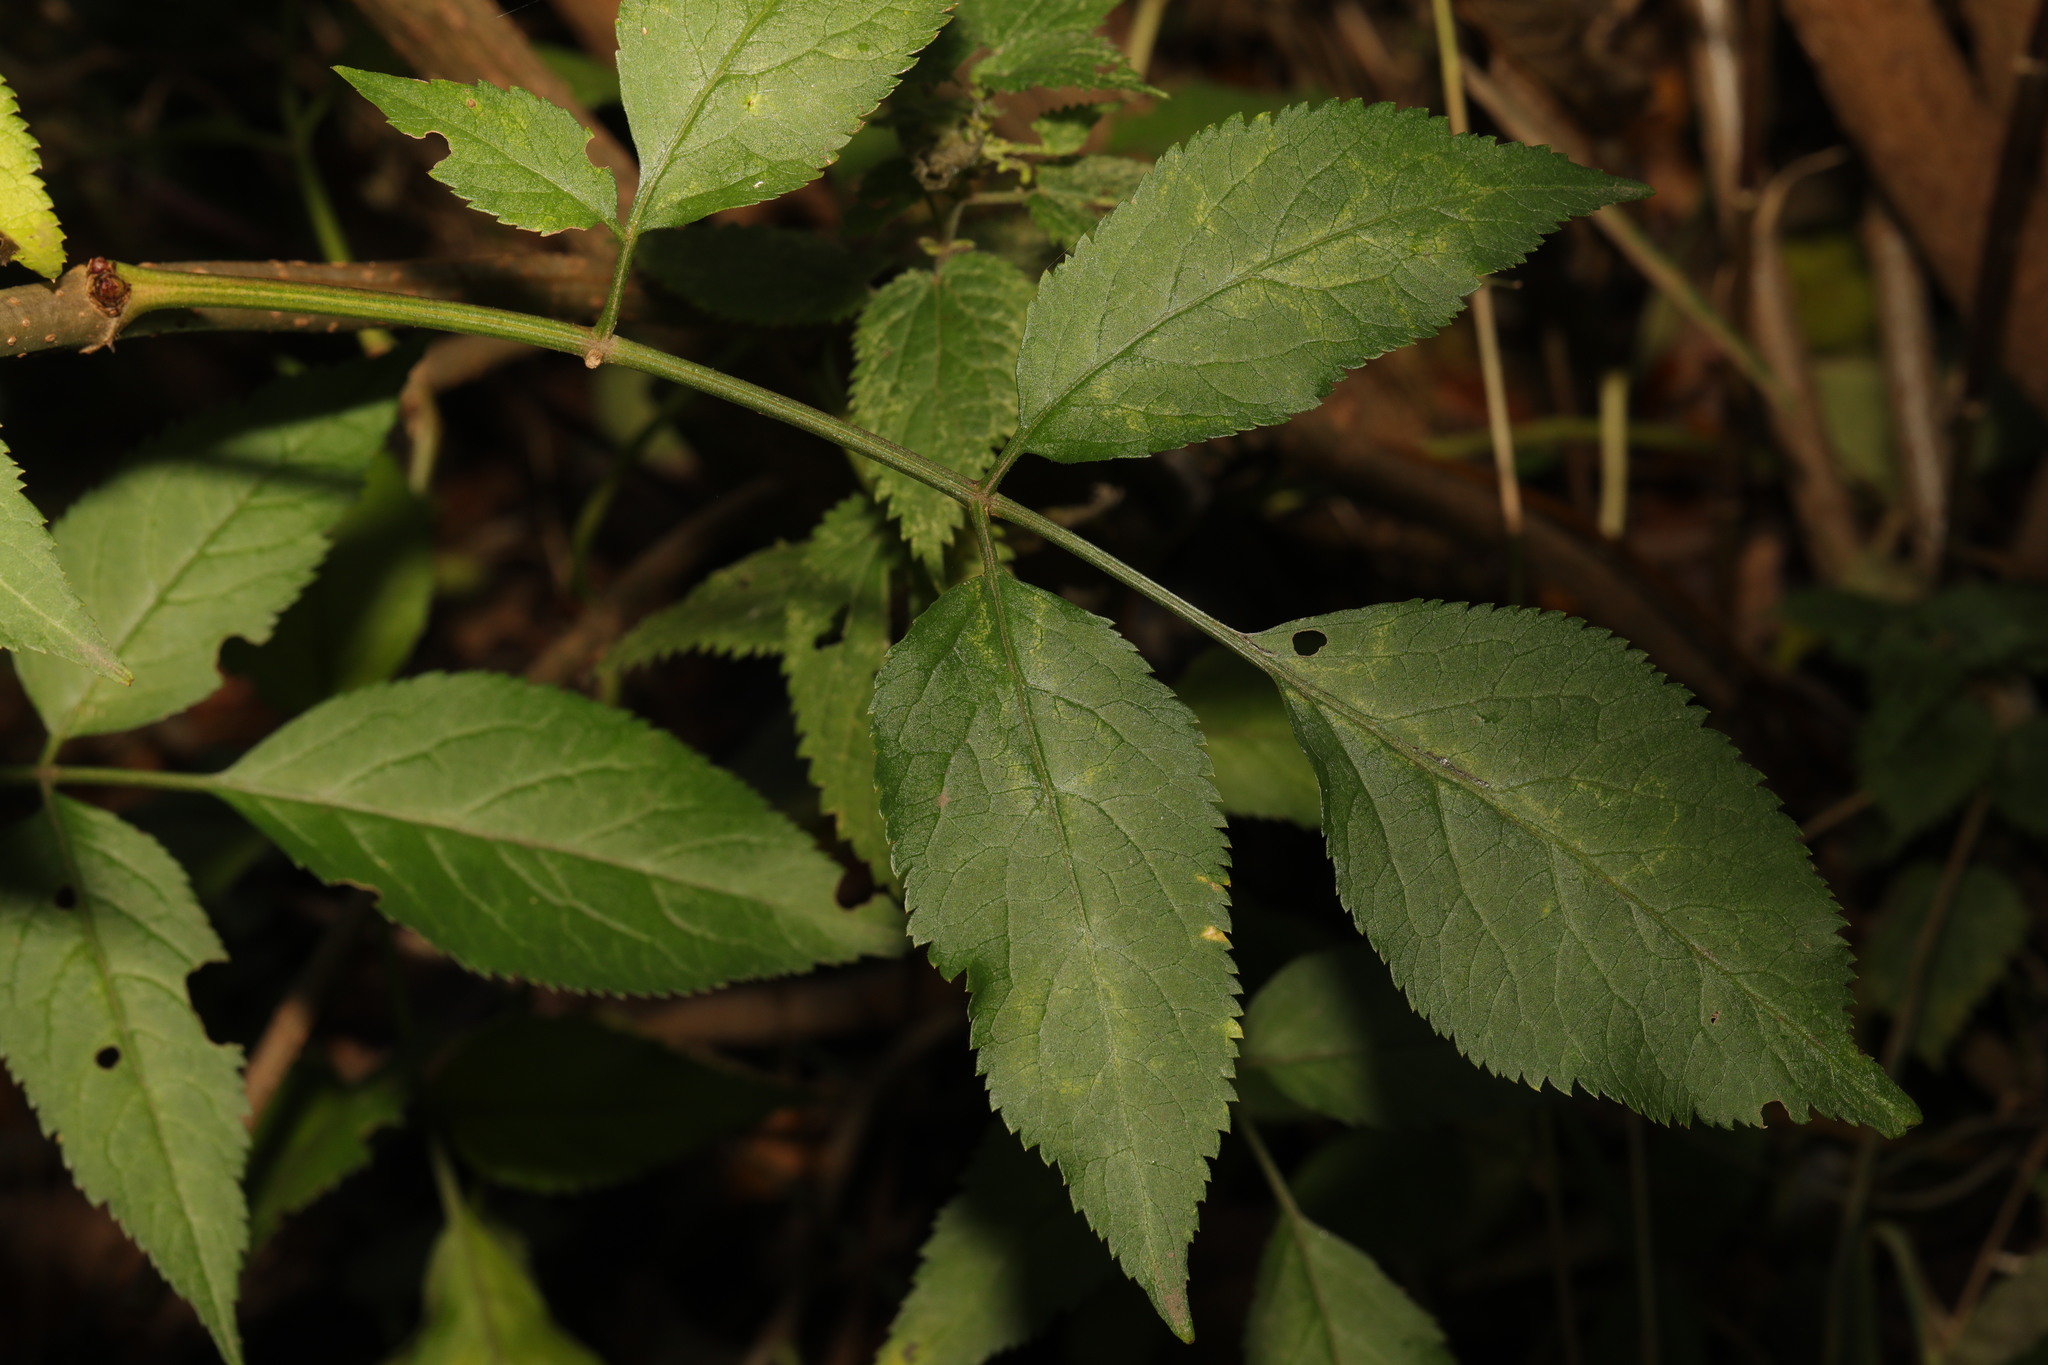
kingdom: Plantae
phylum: Tracheophyta
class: Magnoliopsida
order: Dipsacales
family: Viburnaceae
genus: Sambucus
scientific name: Sambucus nigra
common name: Elder
